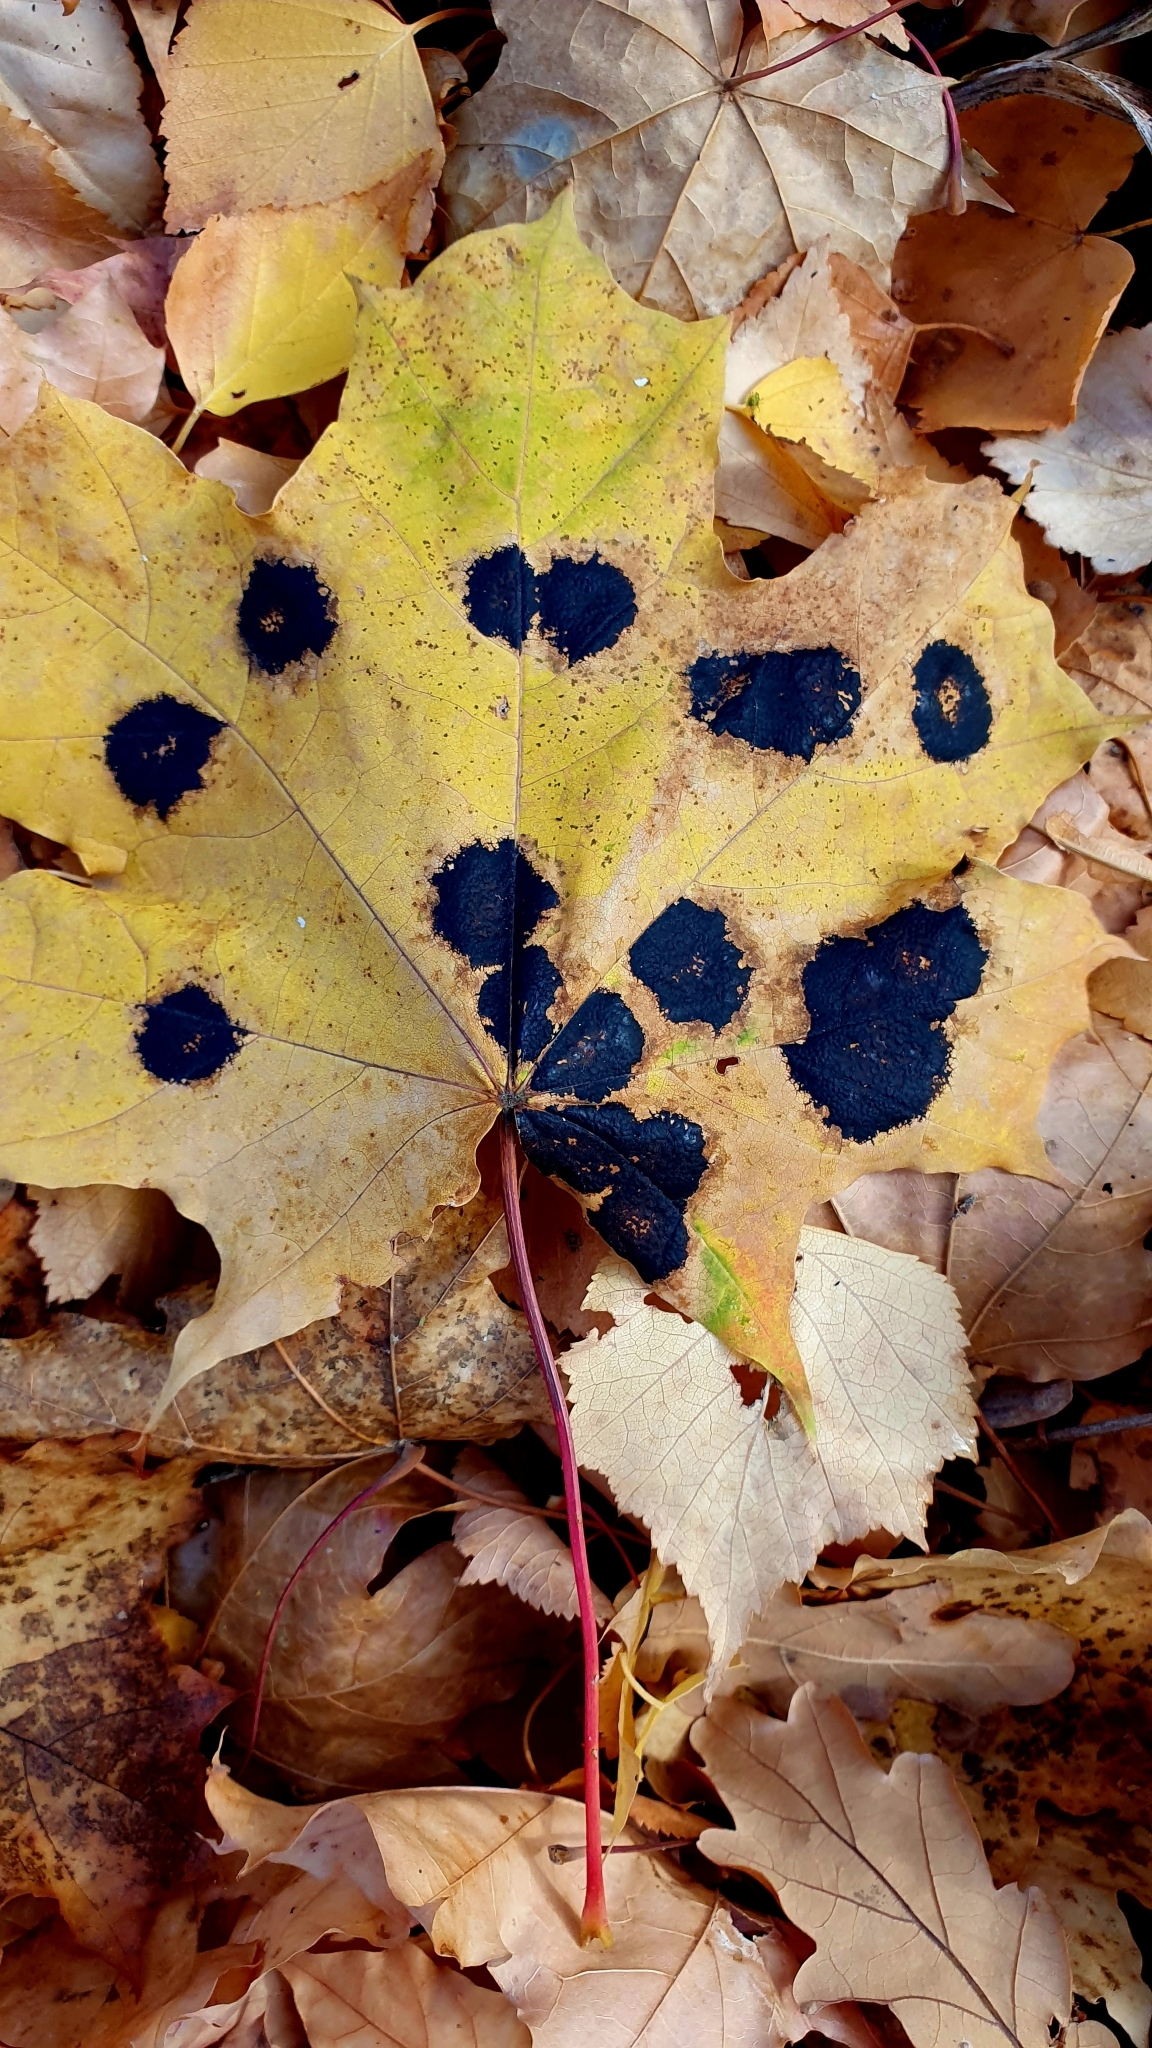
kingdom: Fungi
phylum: Ascomycota
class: Leotiomycetes
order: Rhytismatales
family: Rhytismataceae
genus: Rhytisma
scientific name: Rhytisma acerinum
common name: European tar spot
